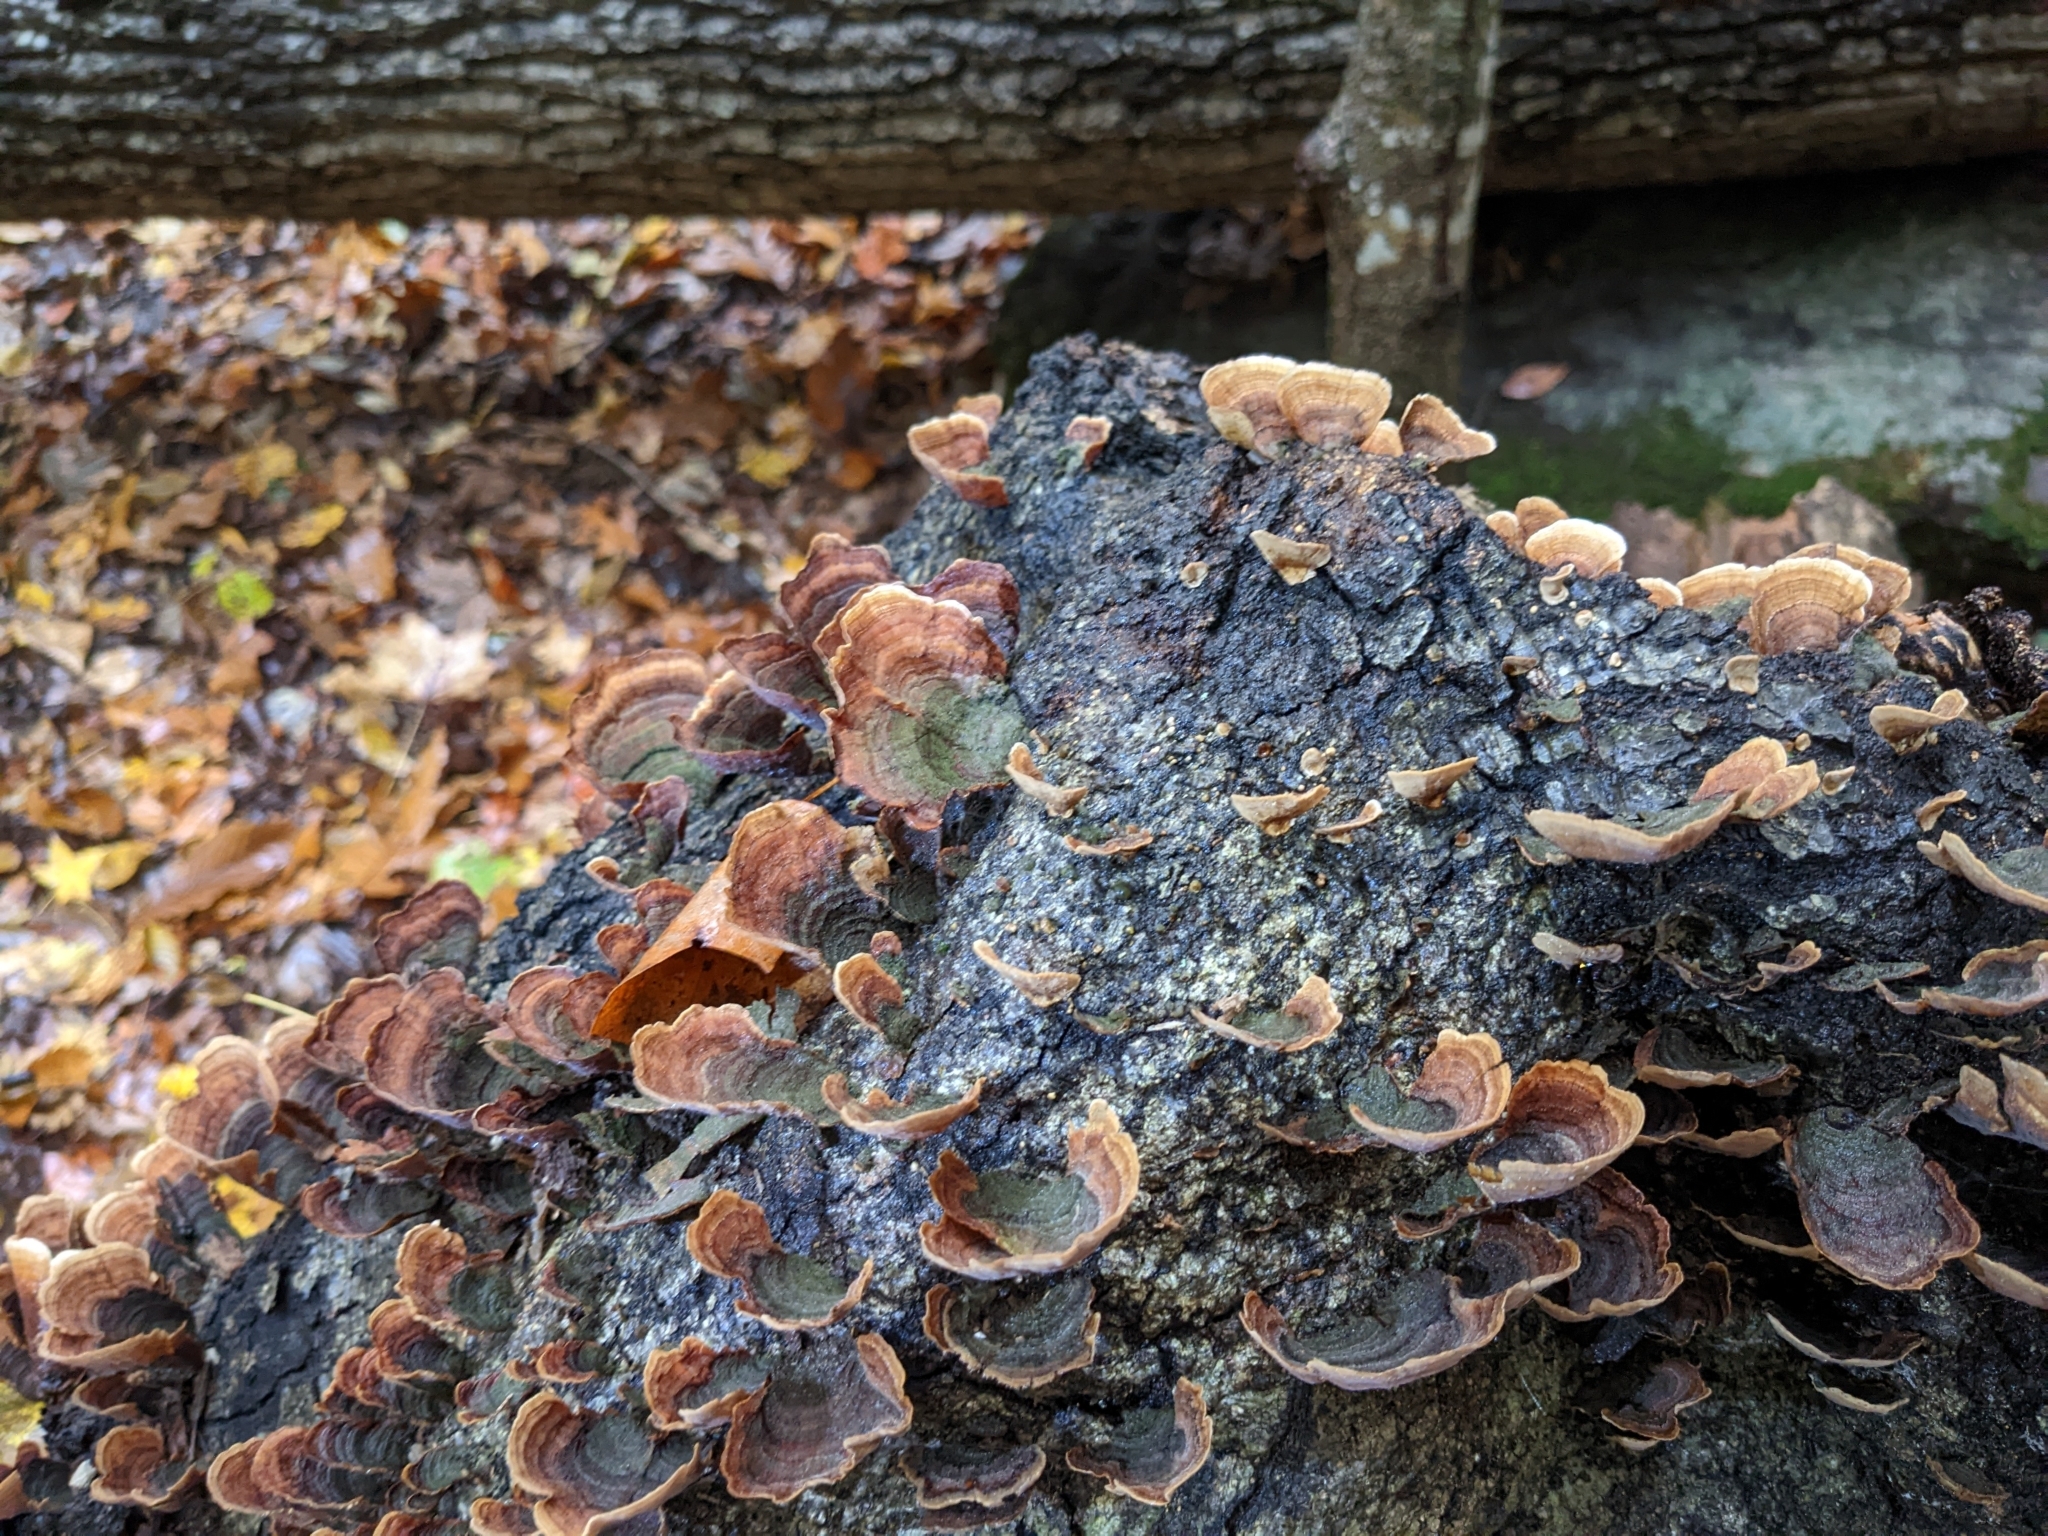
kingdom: Fungi
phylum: Basidiomycota
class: Agaricomycetes
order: Russulales
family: Stereaceae
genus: Stereum
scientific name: Stereum ostrea
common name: False turkeytail
